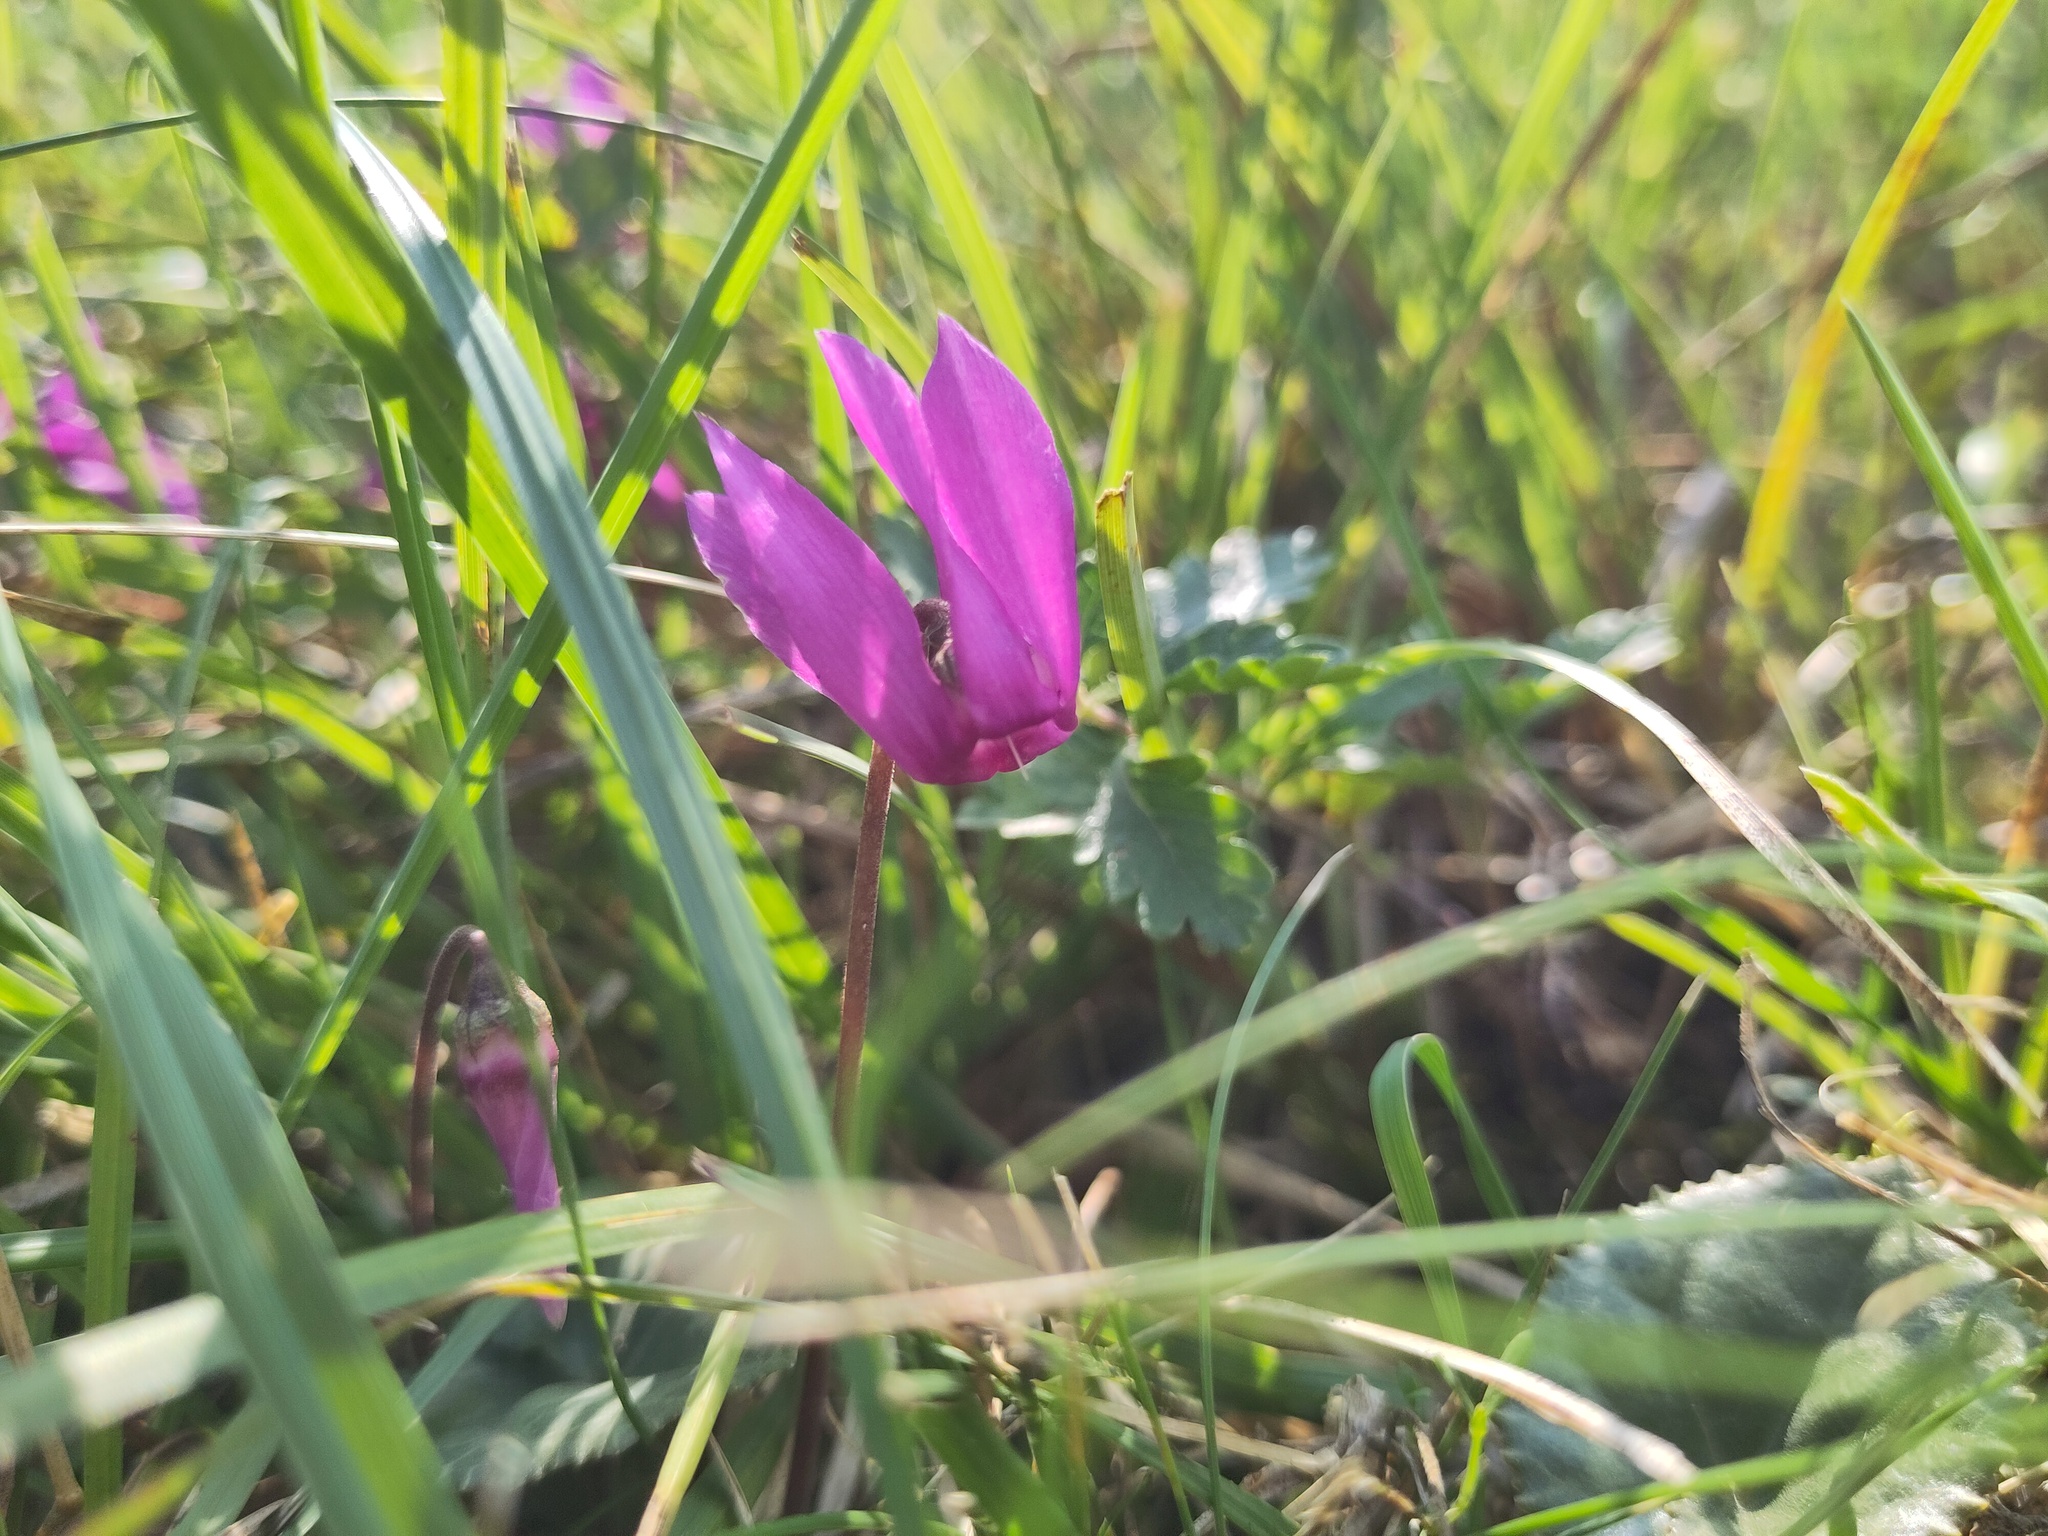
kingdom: Plantae
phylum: Tracheophyta
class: Magnoliopsida
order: Ericales
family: Primulaceae
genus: Cyclamen
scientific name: Cyclamen purpurascens
